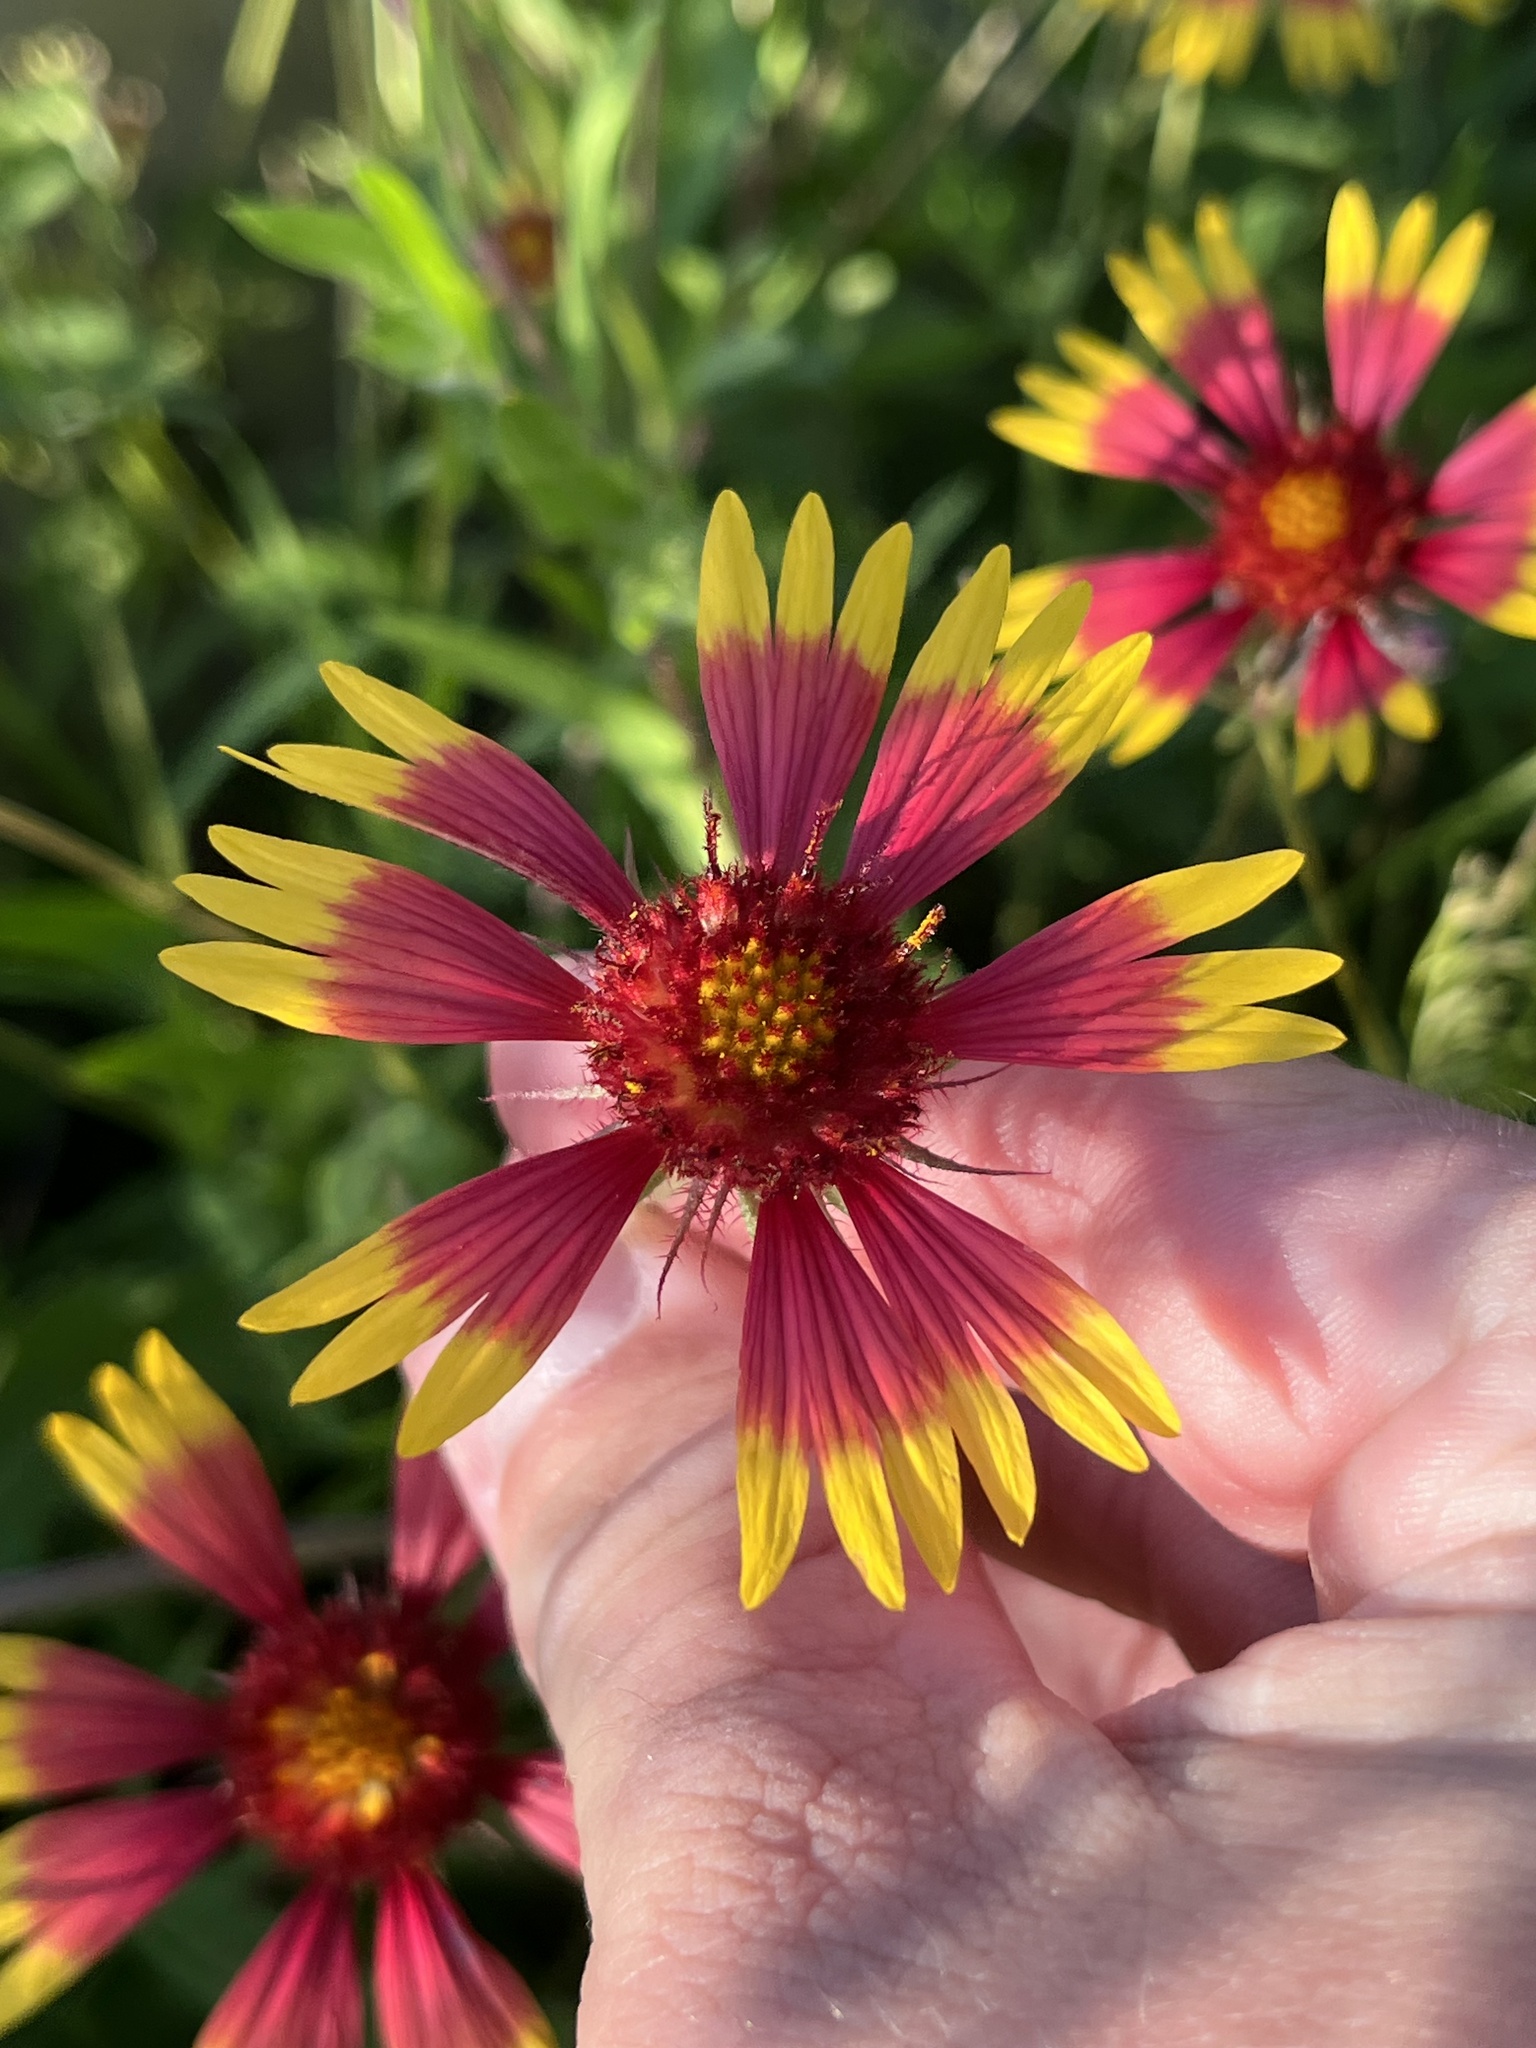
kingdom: Plantae
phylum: Tracheophyta
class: Magnoliopsida
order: Asterales
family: Asteraceae
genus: Gaillardia
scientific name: Gaillardia pulchella
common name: Firewheel
